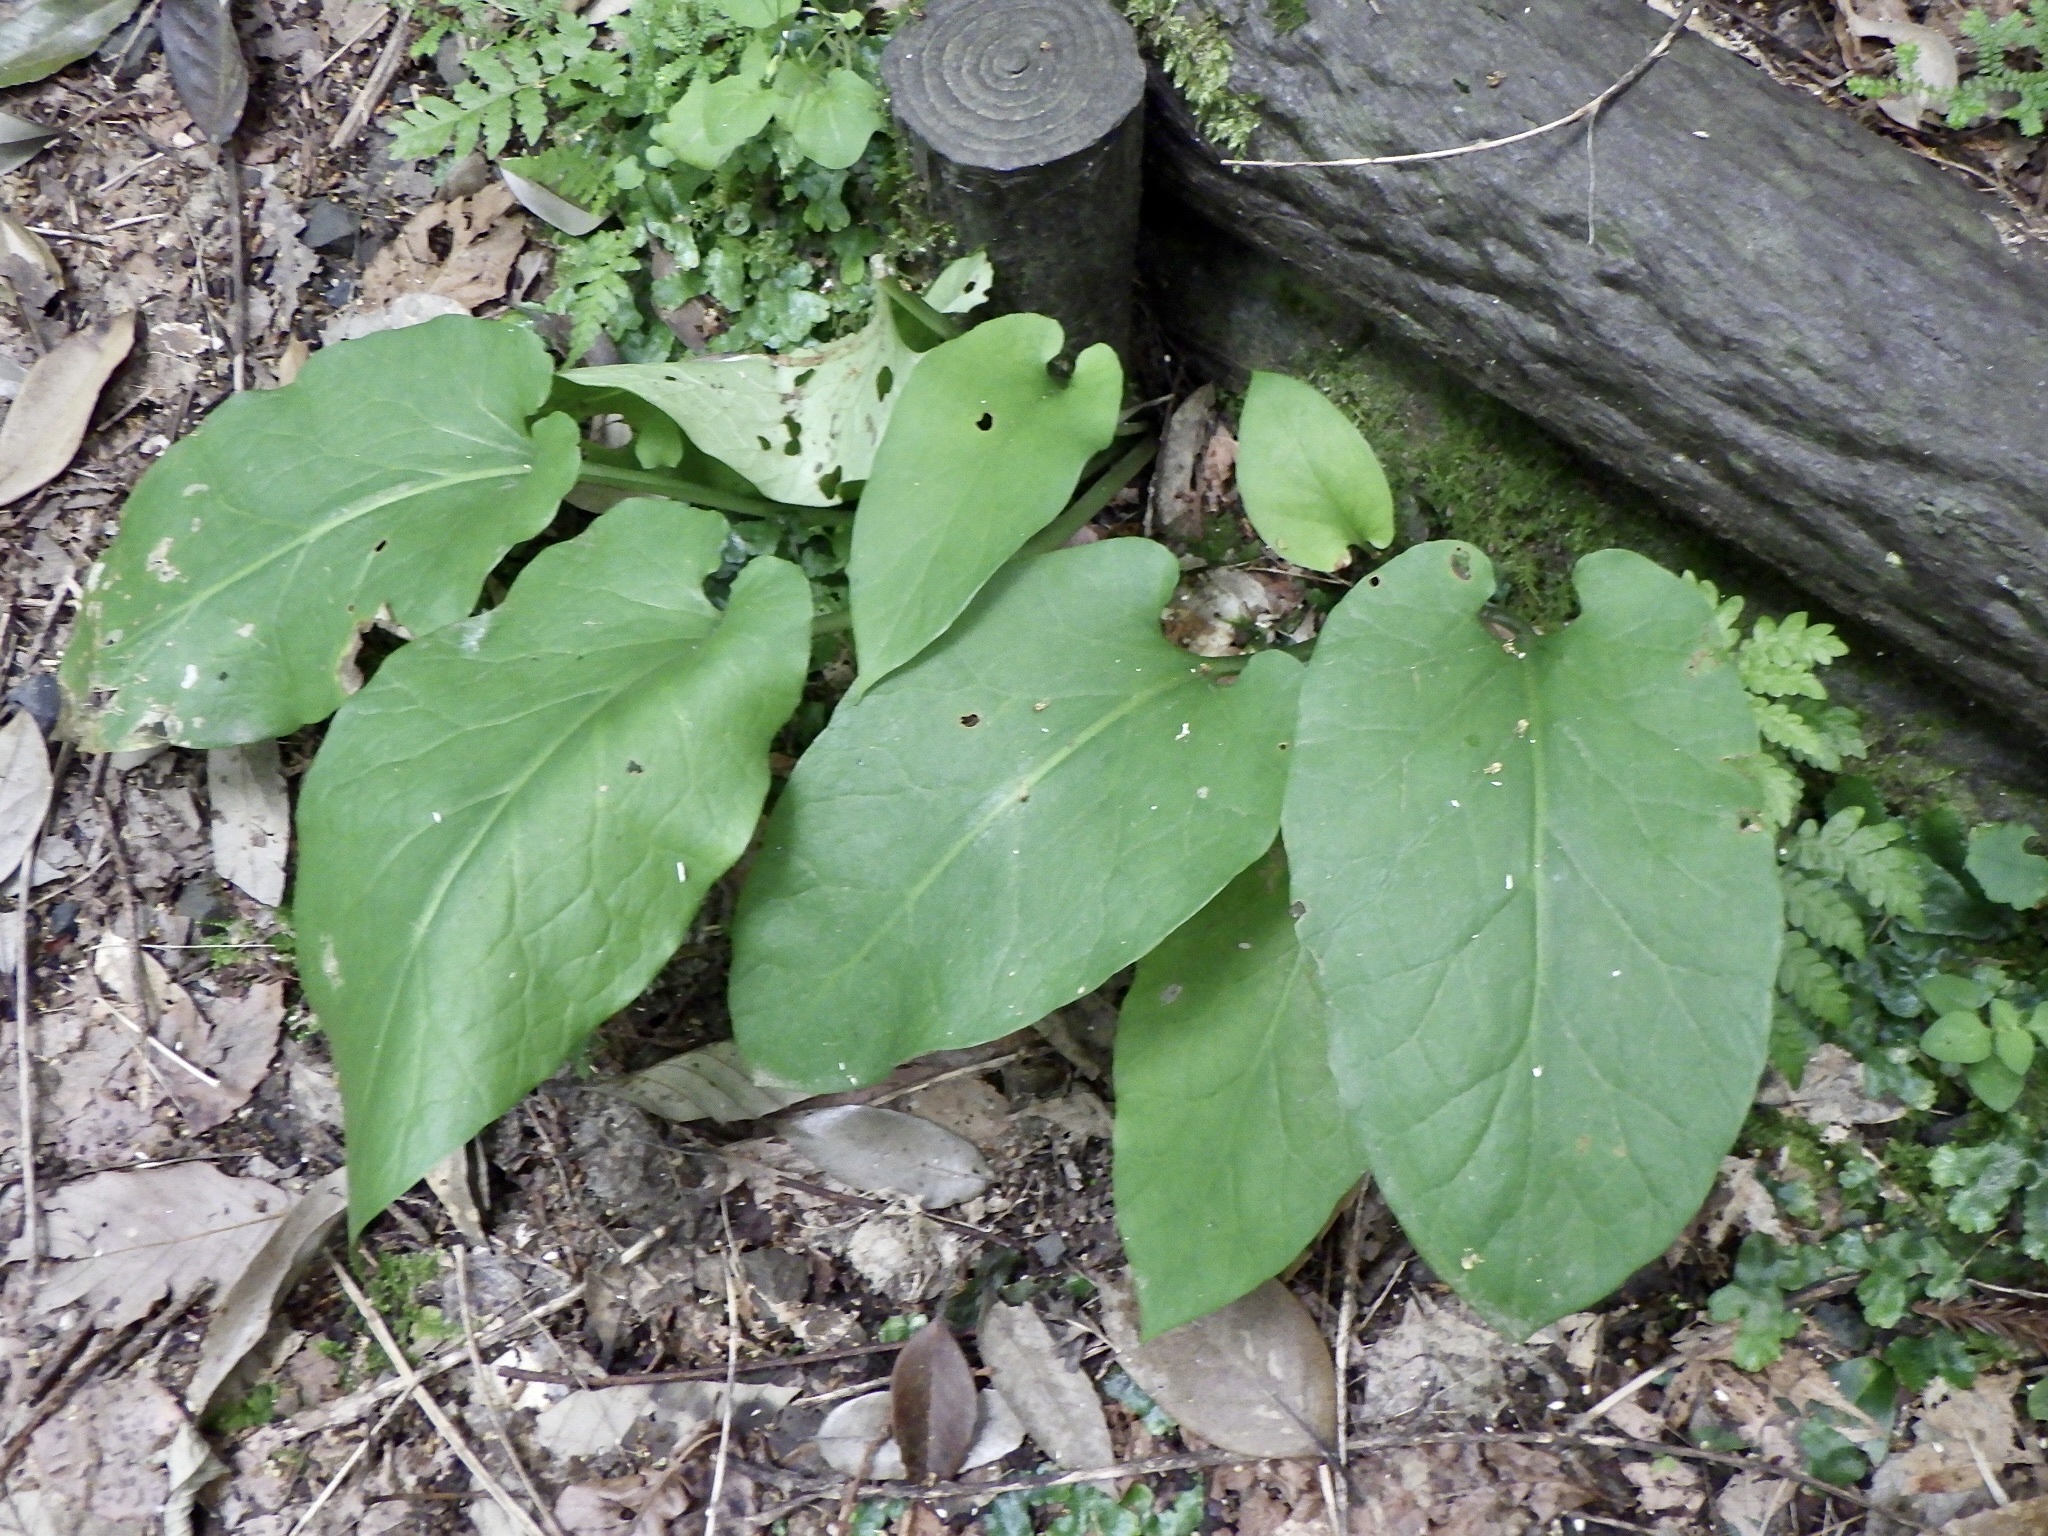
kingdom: Plantae
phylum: Tracheophyta
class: Liliopsida
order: Liliales
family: Liliaceae
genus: Cardiocrinum
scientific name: Cardiocrinum cordatum
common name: Lily
